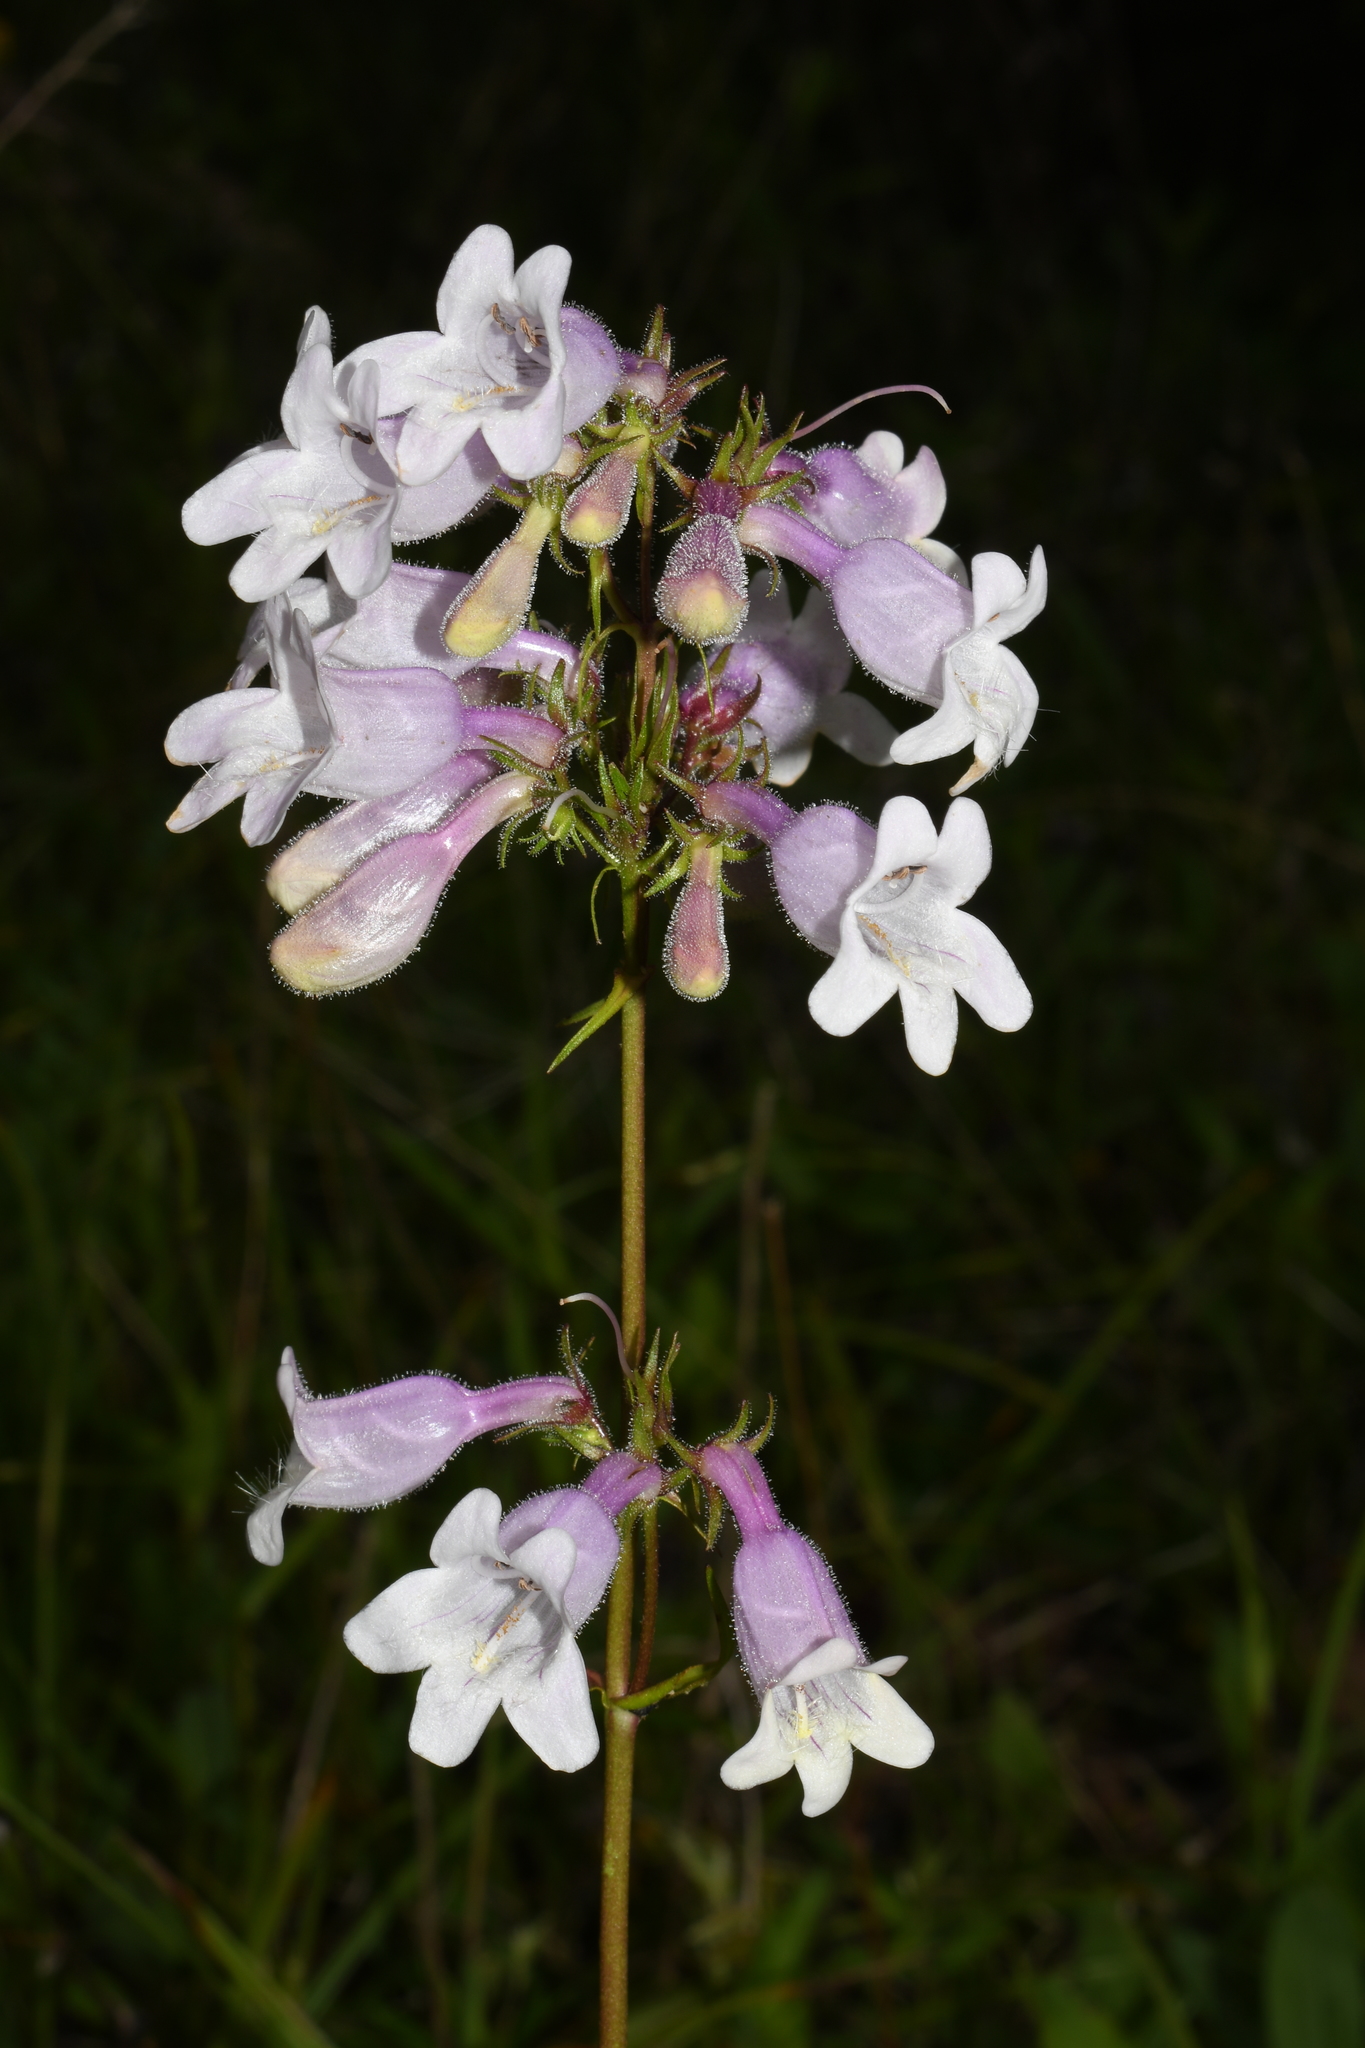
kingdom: Plantae
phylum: Tracheophyta
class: Magnoliopsida
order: Lamiales
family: Plantaginaceae
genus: Penstemon
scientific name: Penstemon calycosus
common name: Long-sepal beardtongue
